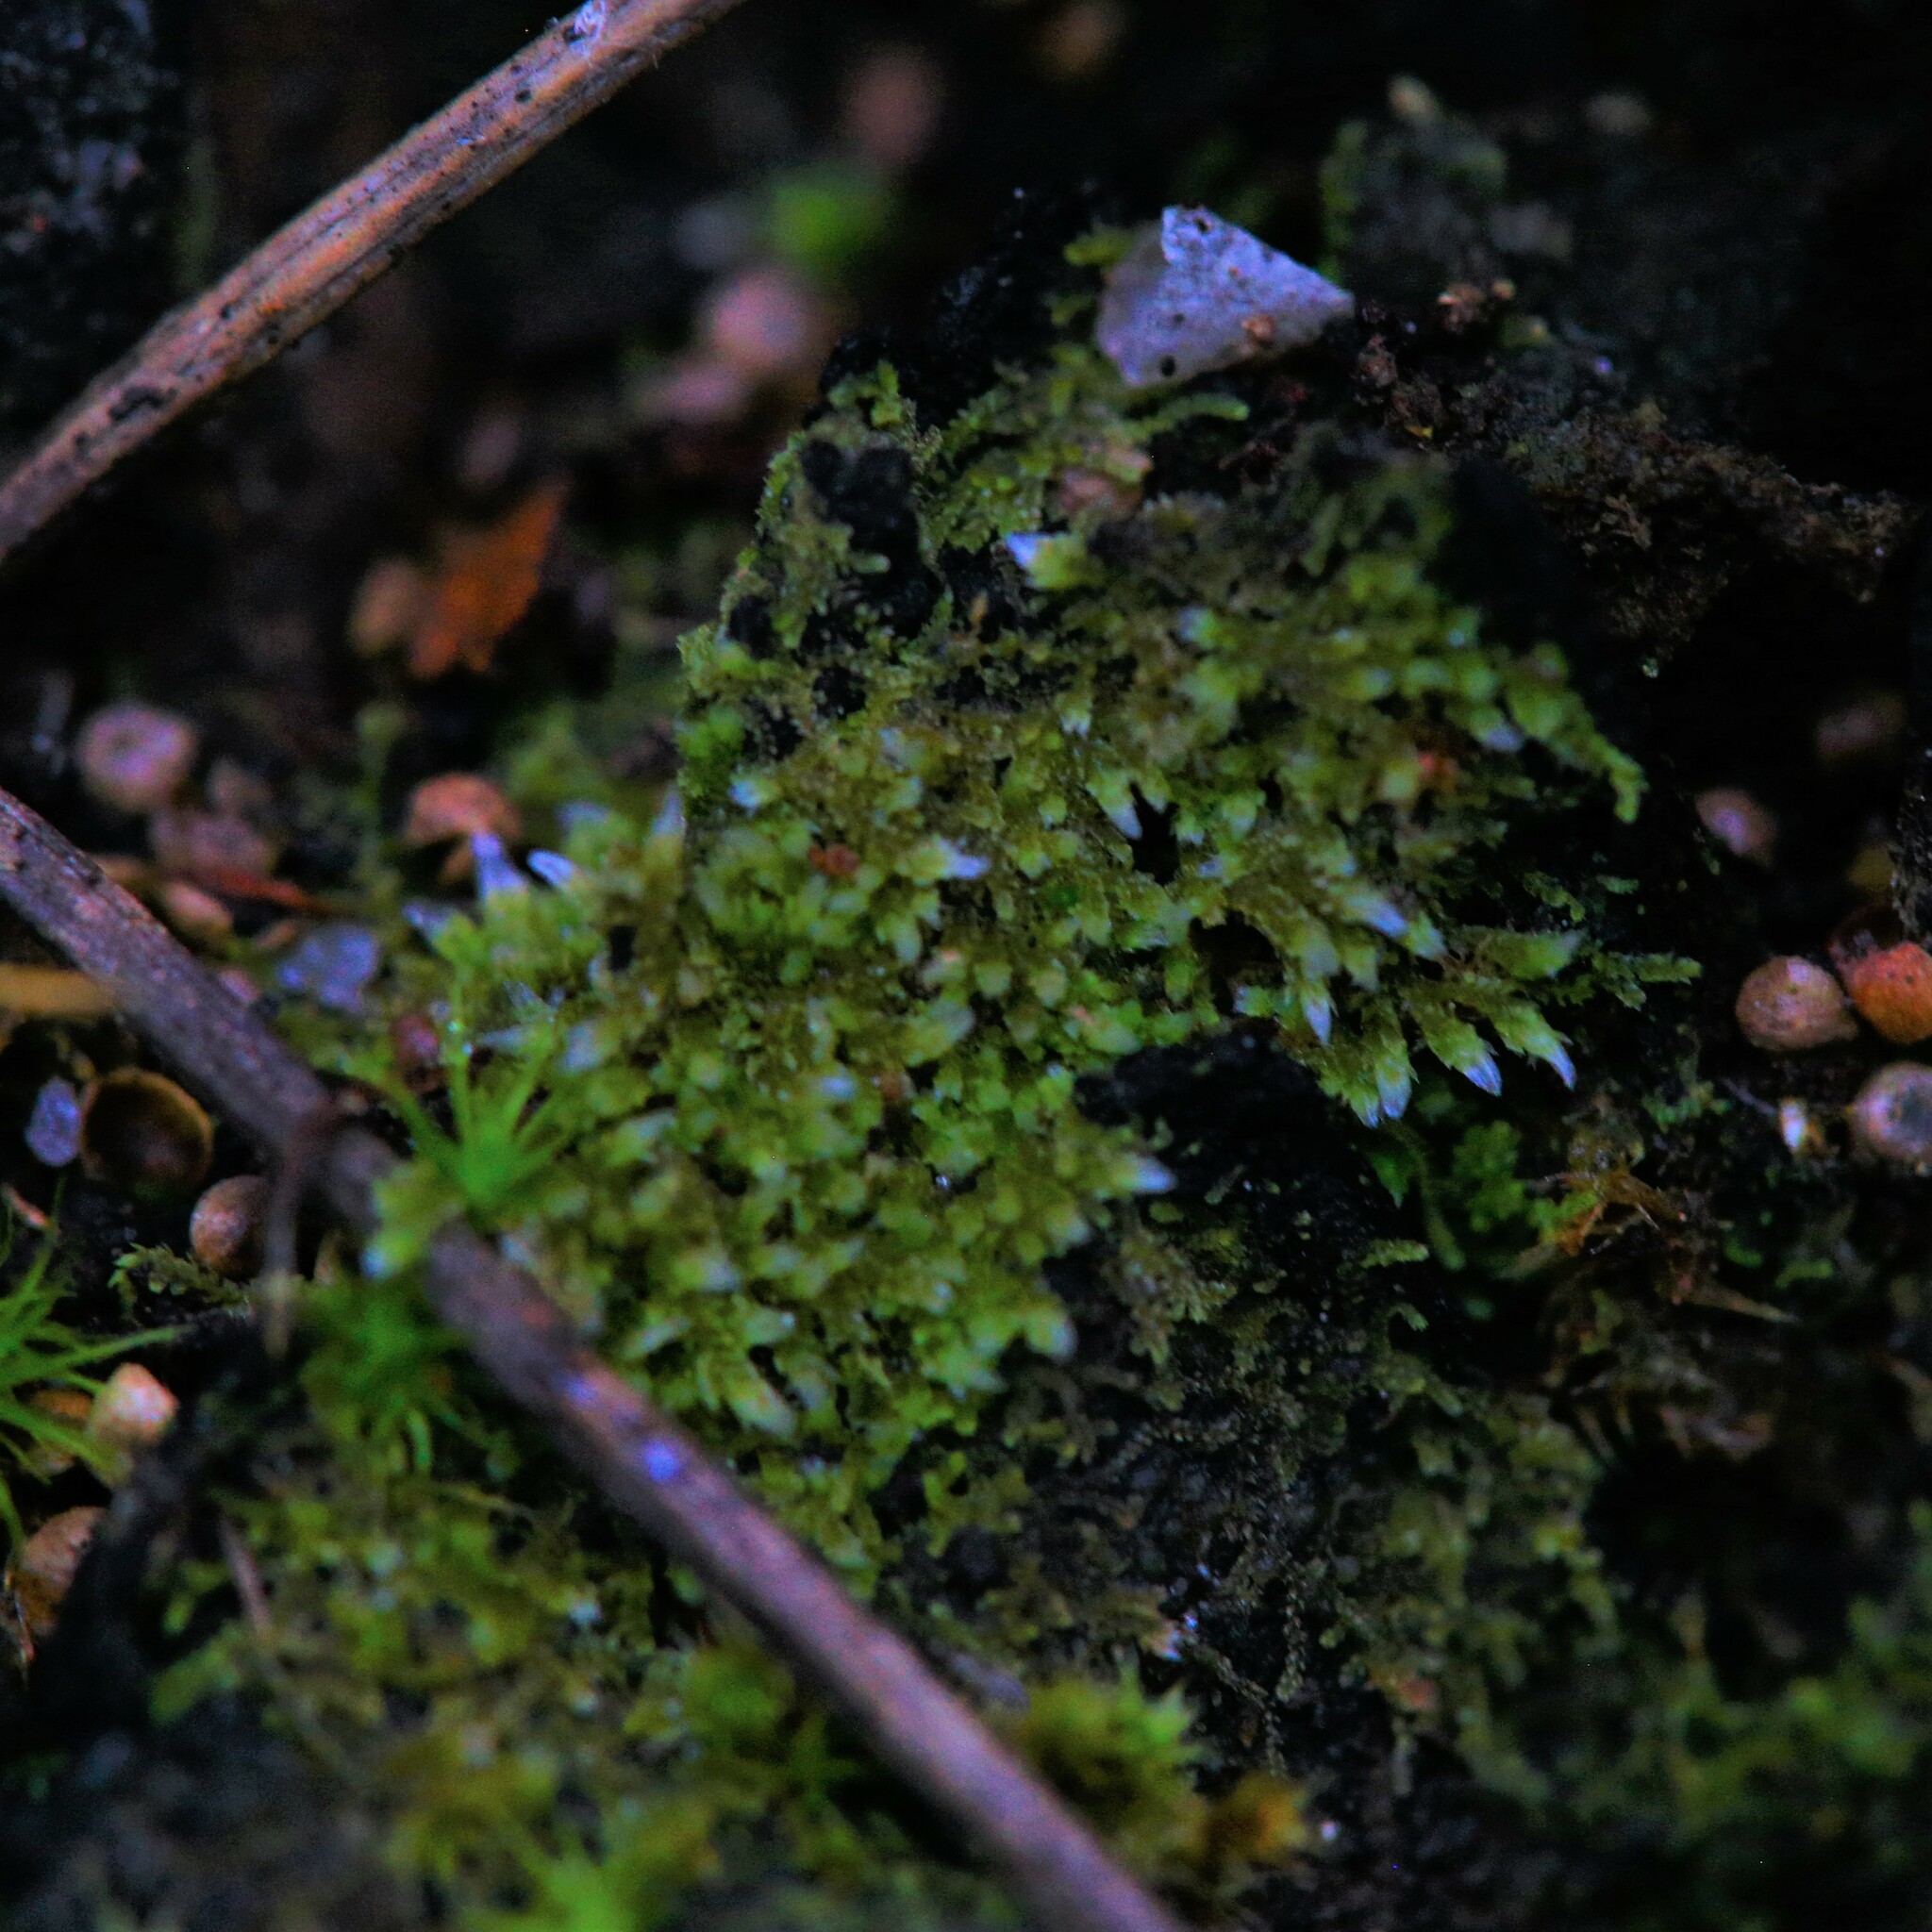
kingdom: Plantae
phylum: Marchantiophyta
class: Jungermanniopsida
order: Jungermanniales
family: Cephaloziellaceae
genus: Cephaloziella
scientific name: Cephaloziella exiliflora
